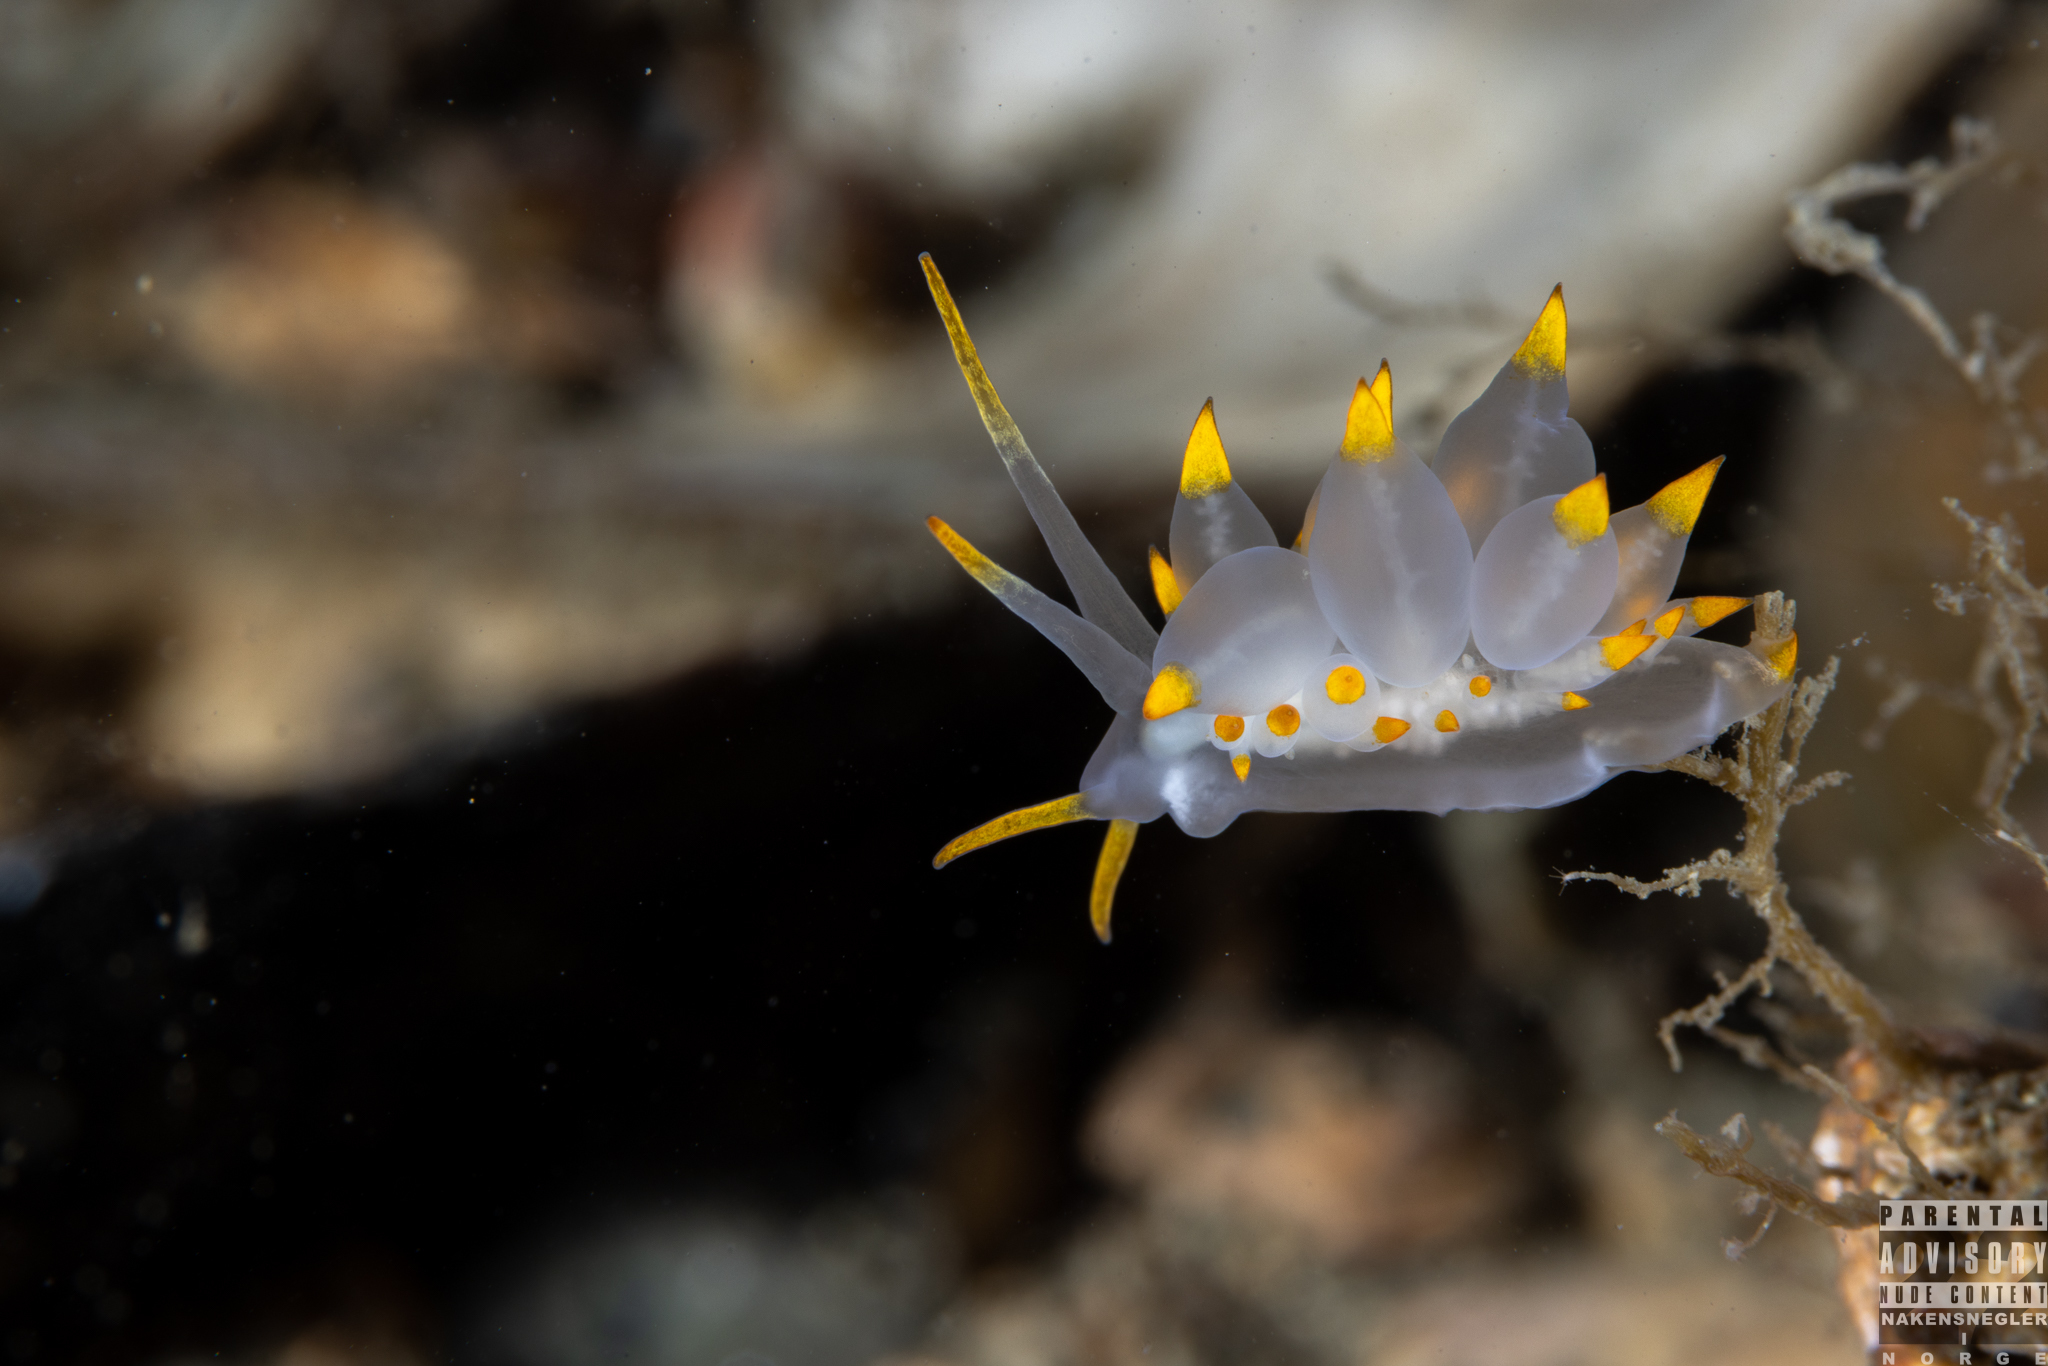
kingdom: Animalia
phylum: Mollusca
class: Gastropoda
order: Nudibranchia
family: Eubranchidae
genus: Amphorina
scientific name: Amphorina farrani
